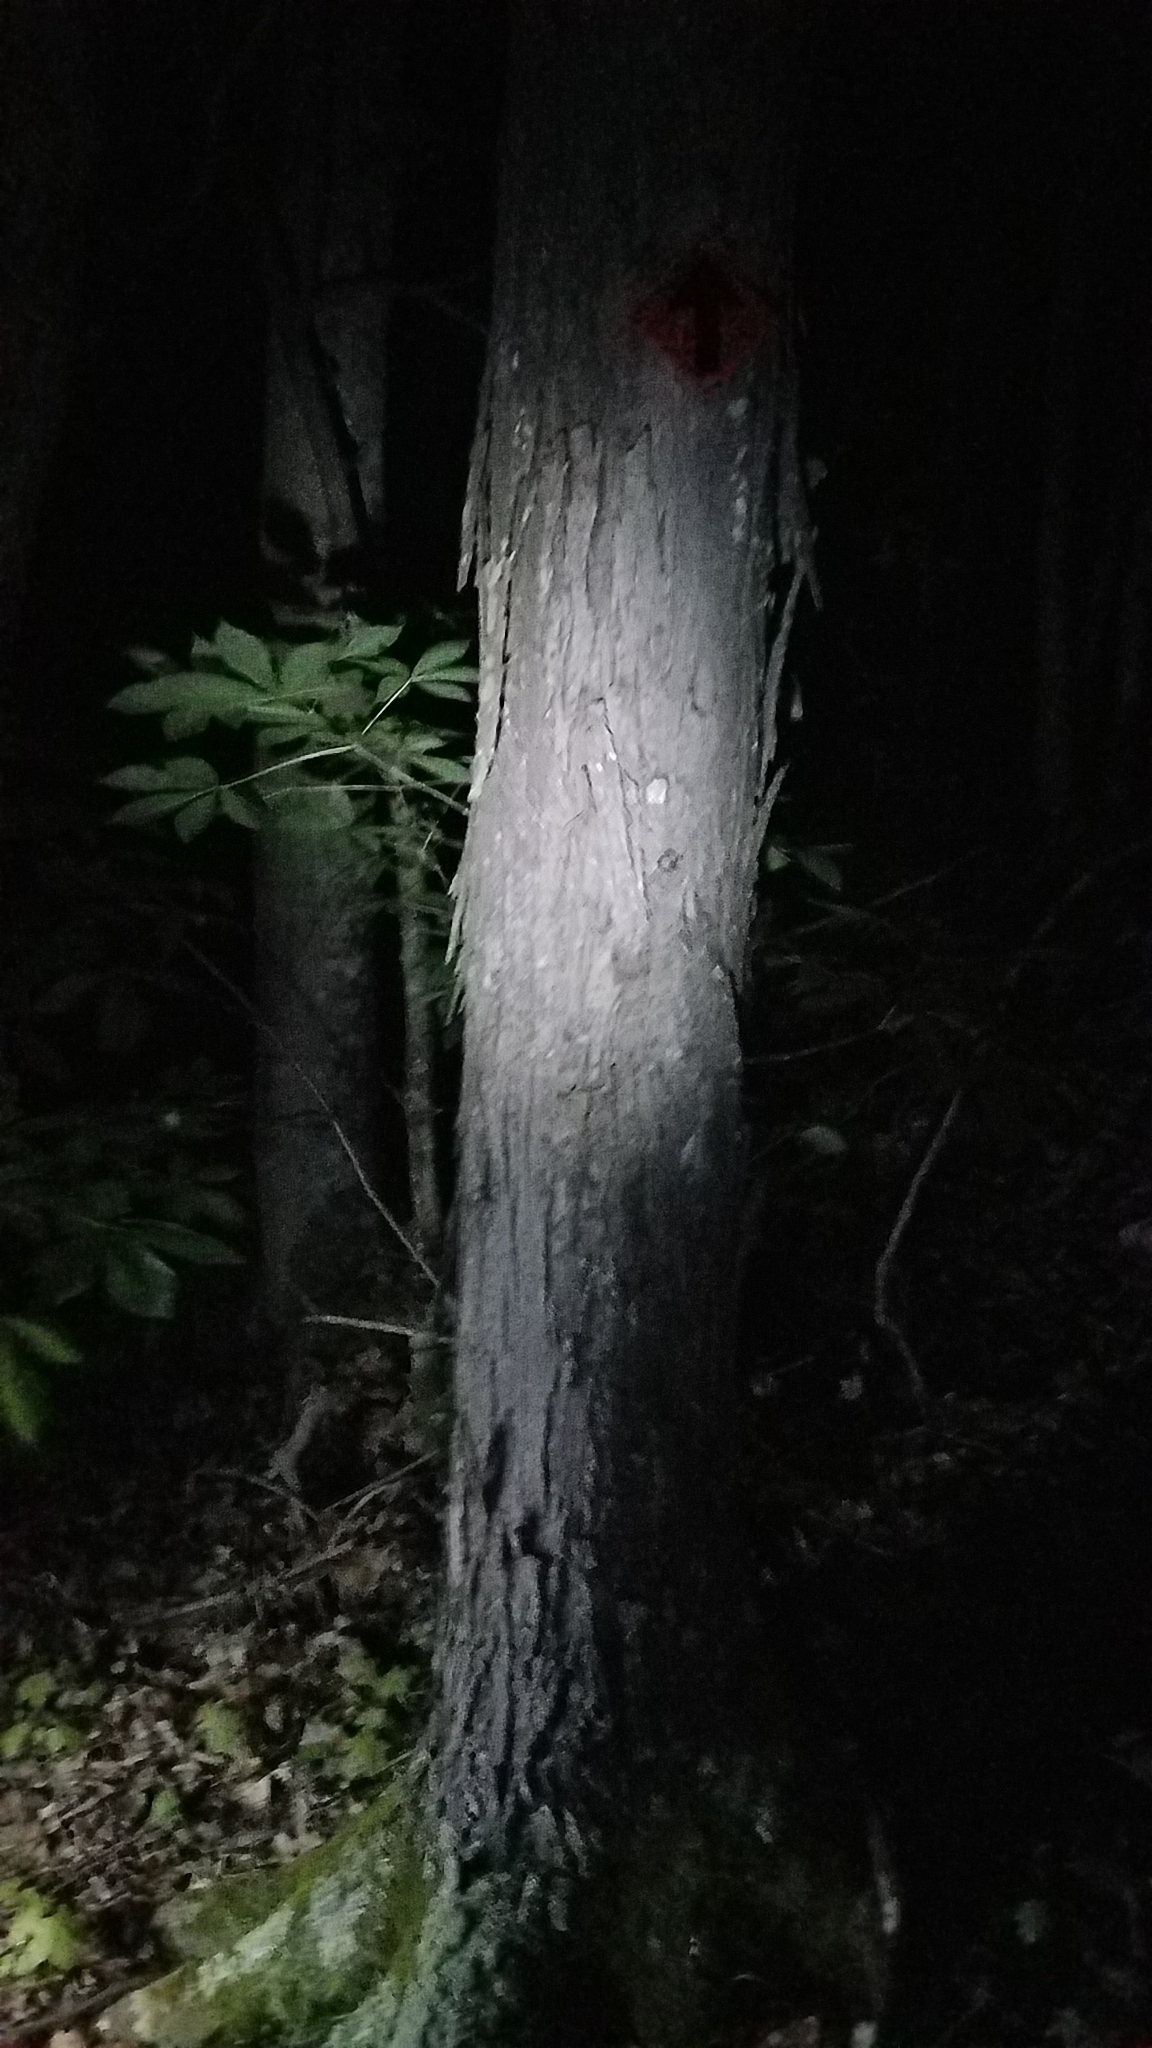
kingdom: Plantae
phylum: Tracheophyta
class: Magnoliopsida
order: Fagales
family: Juglandaceae
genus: Carya
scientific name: Carya ovata
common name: Shagbark hickory
